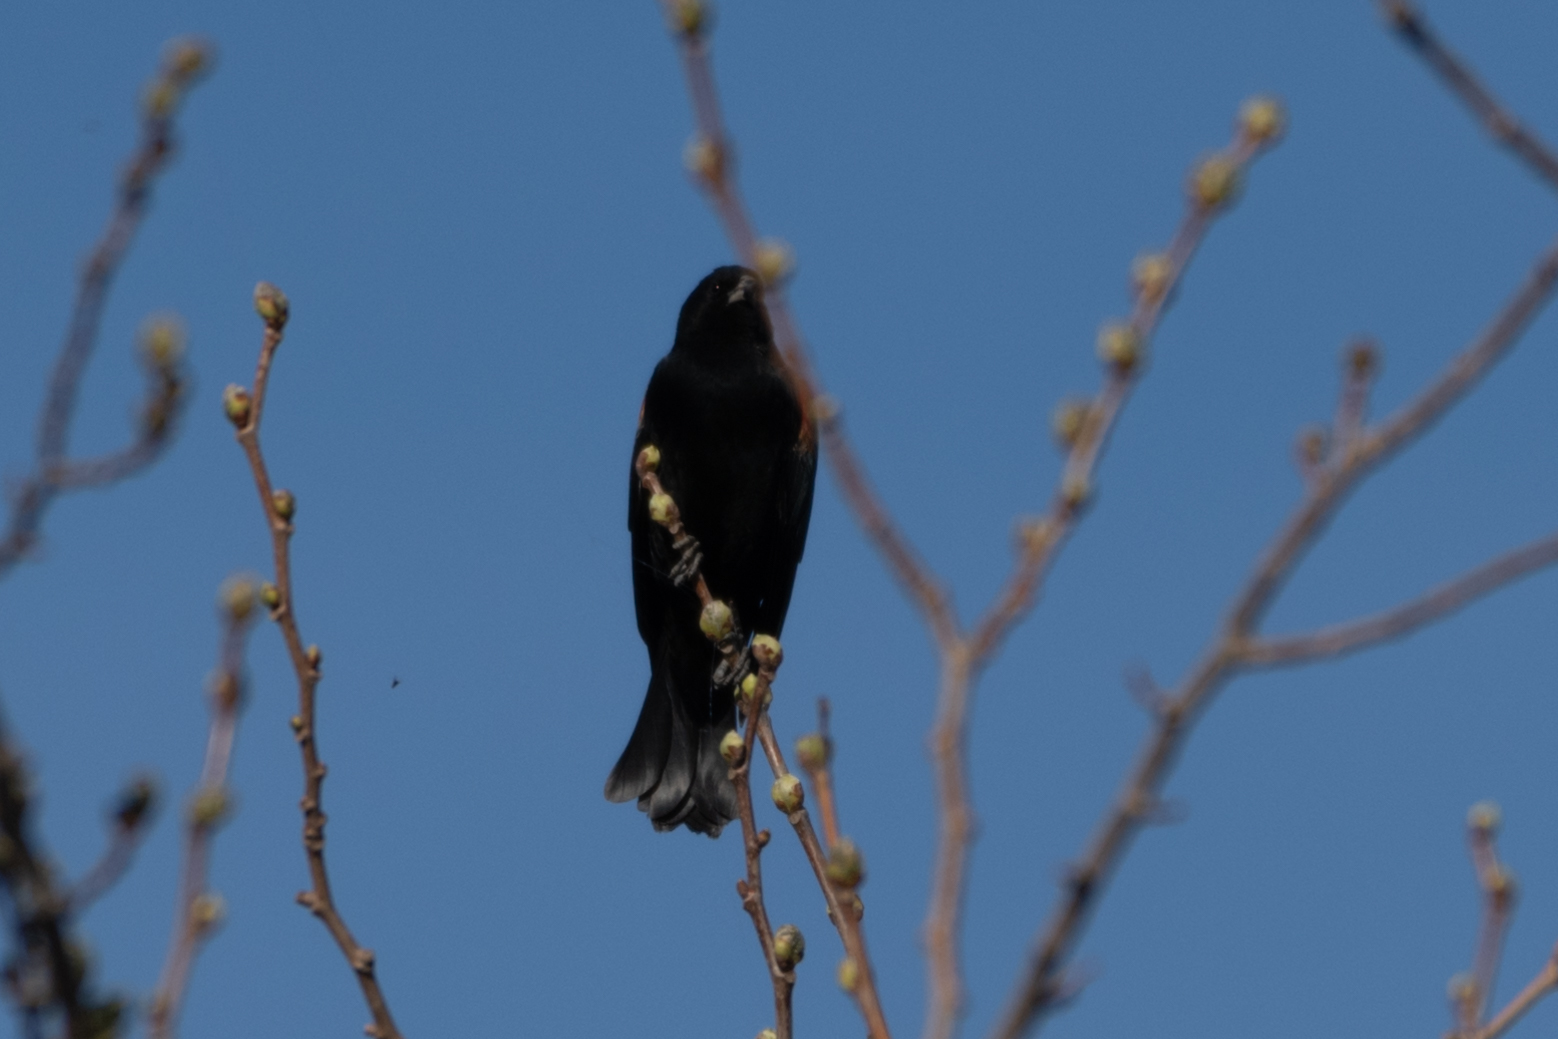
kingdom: Animalia
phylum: Chordata
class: Aves
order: Passeriformes
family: Icteridae
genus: Agelaius
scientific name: Agelaius phoeniceus
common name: Red-winged blackbird
